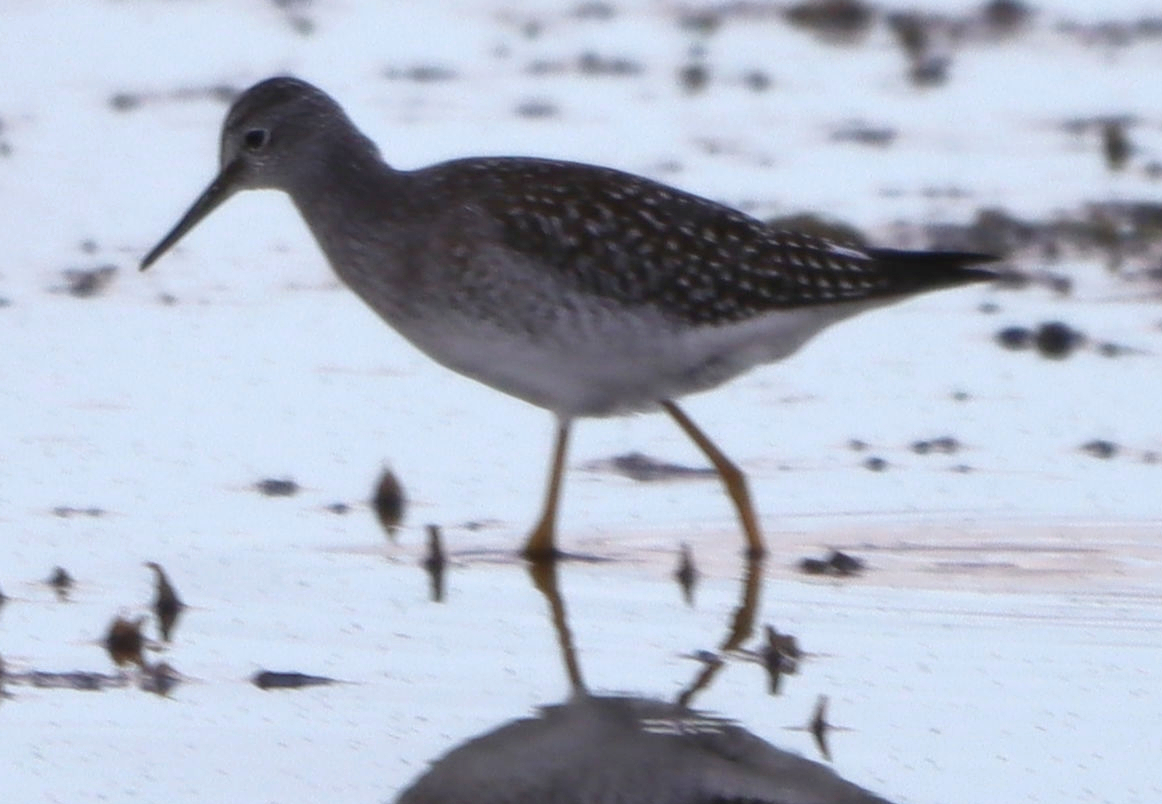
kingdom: Animalia
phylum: Chordata
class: Aves
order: Charadriiformes
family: Scolopacidae
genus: Tringa
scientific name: Tringa flavipes
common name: Lesser yellowlegs
